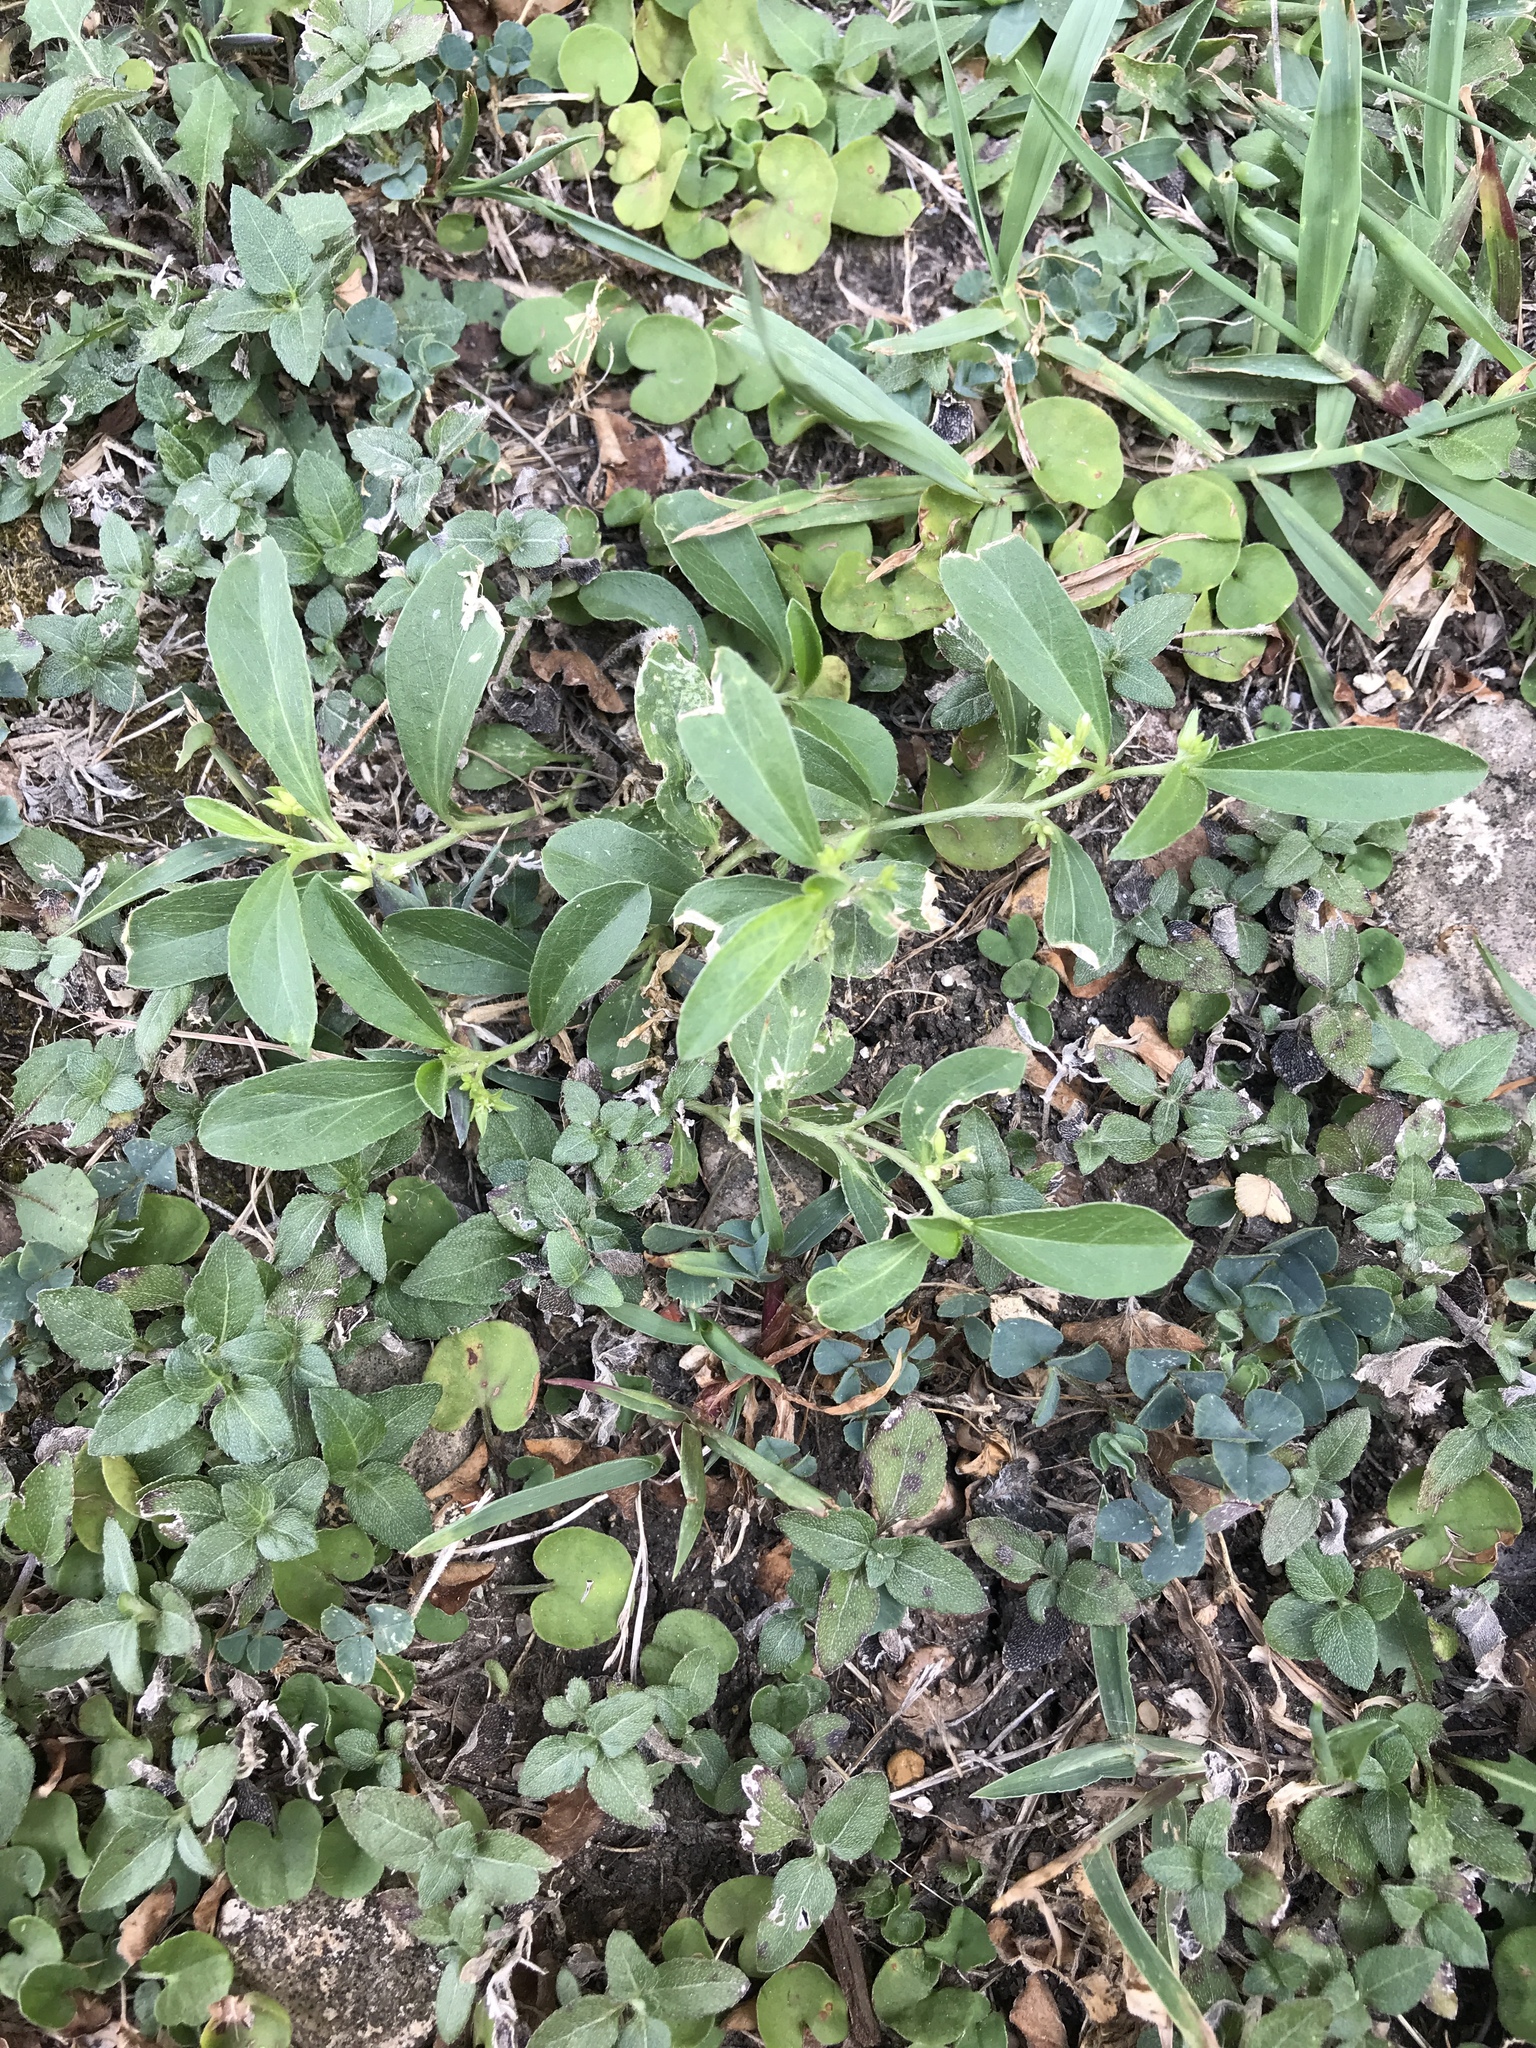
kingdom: Plantae
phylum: Tracheophyta
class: Magnoliopsida
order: Malpighiales
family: Euphorbiaceae
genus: Ditaxis
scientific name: Ditaxis humilis
